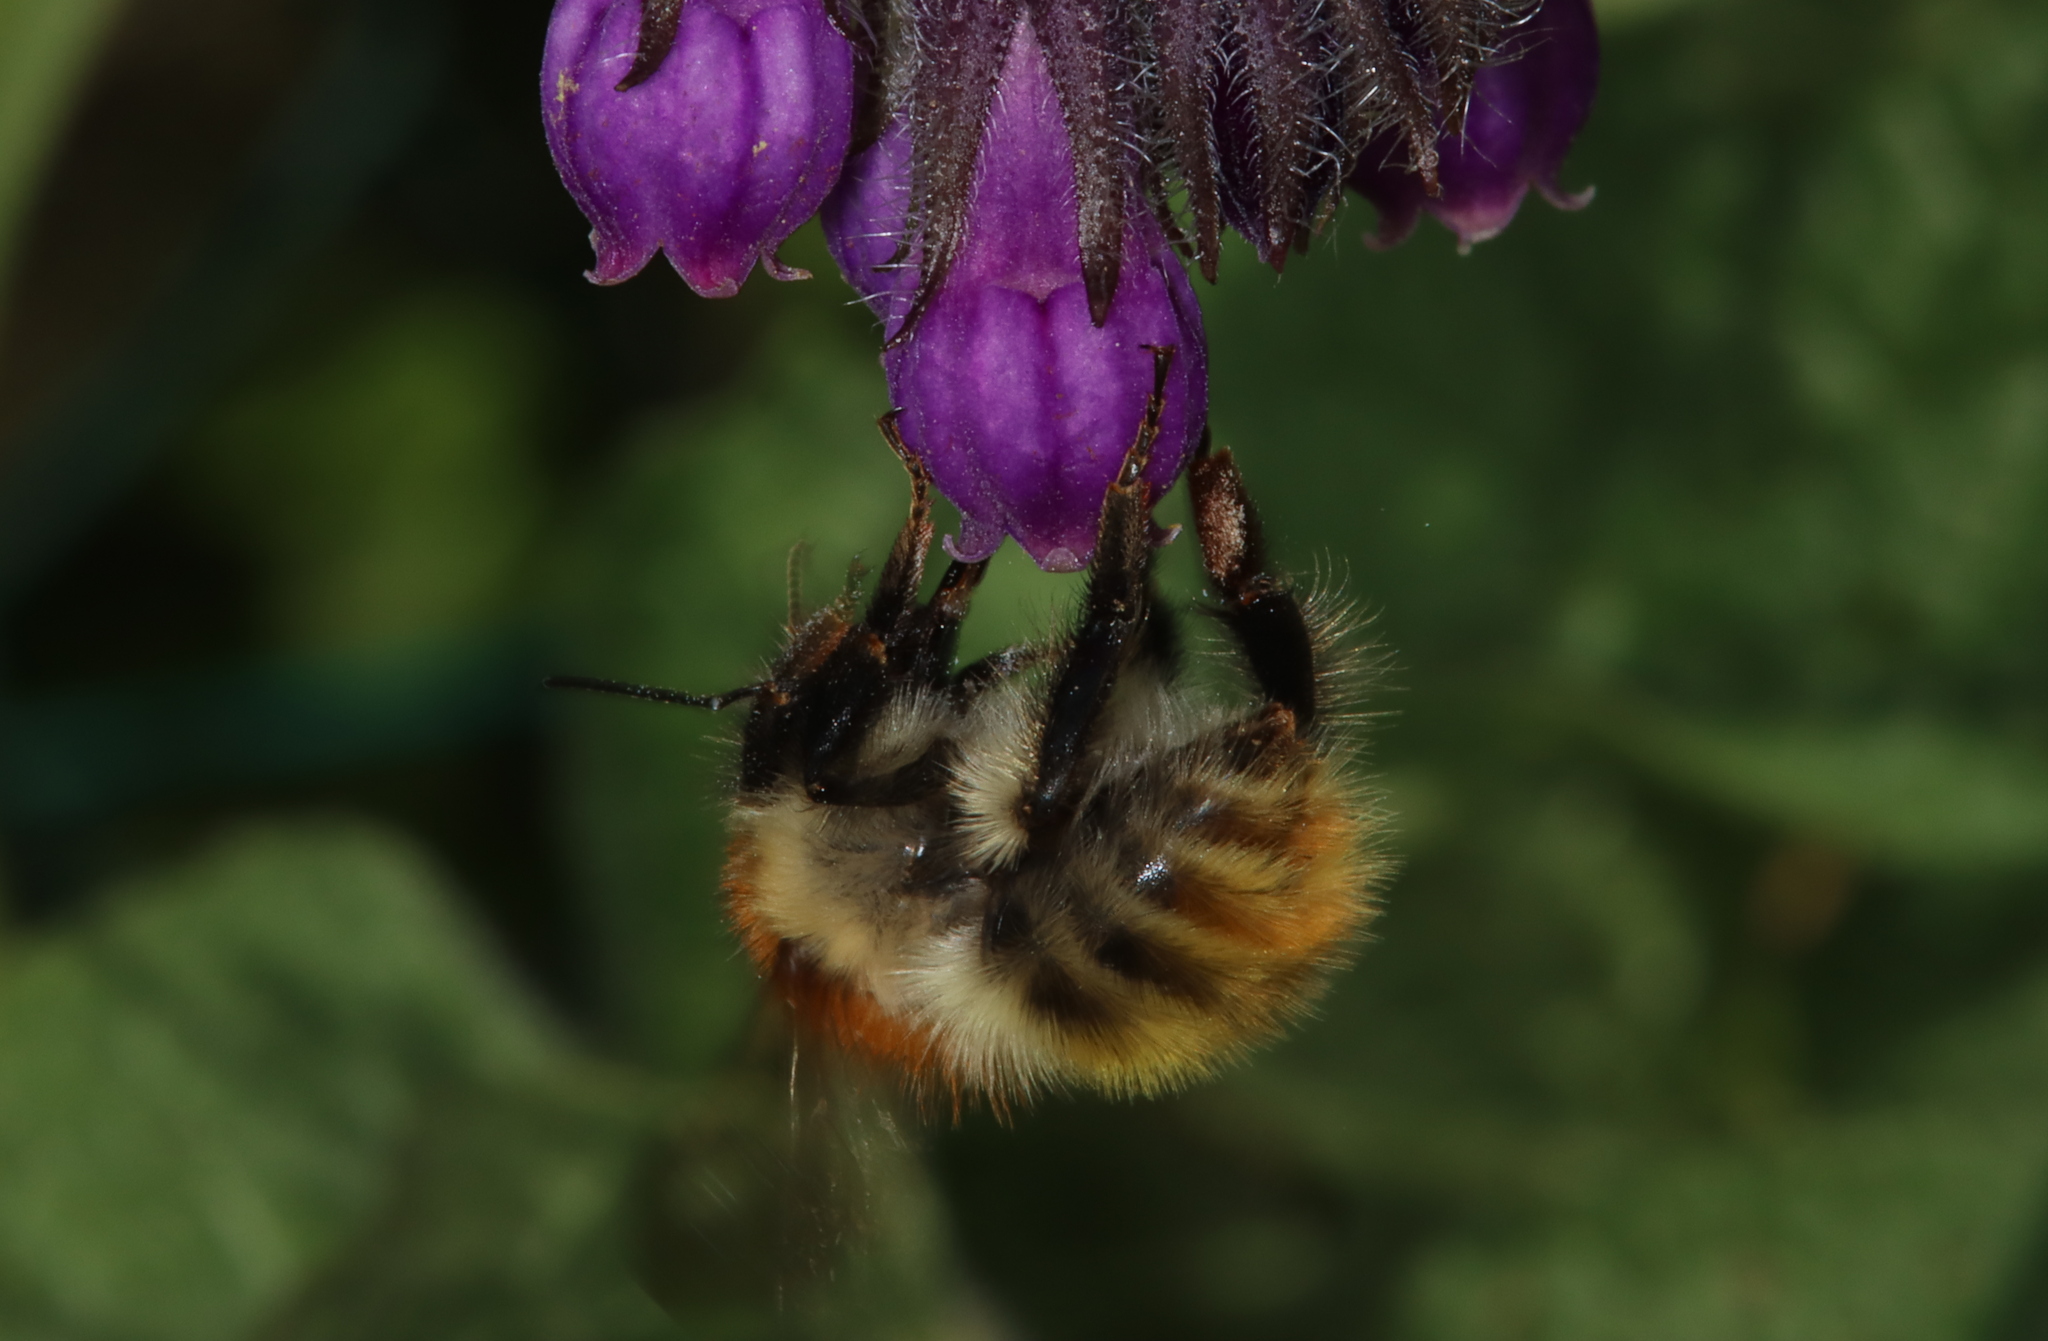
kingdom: Animalia
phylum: Arthropoda
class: Insecta
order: Hymenoptera
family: Apidae
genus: Bombus
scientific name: Bombus pascuorum
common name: Common carder bee
